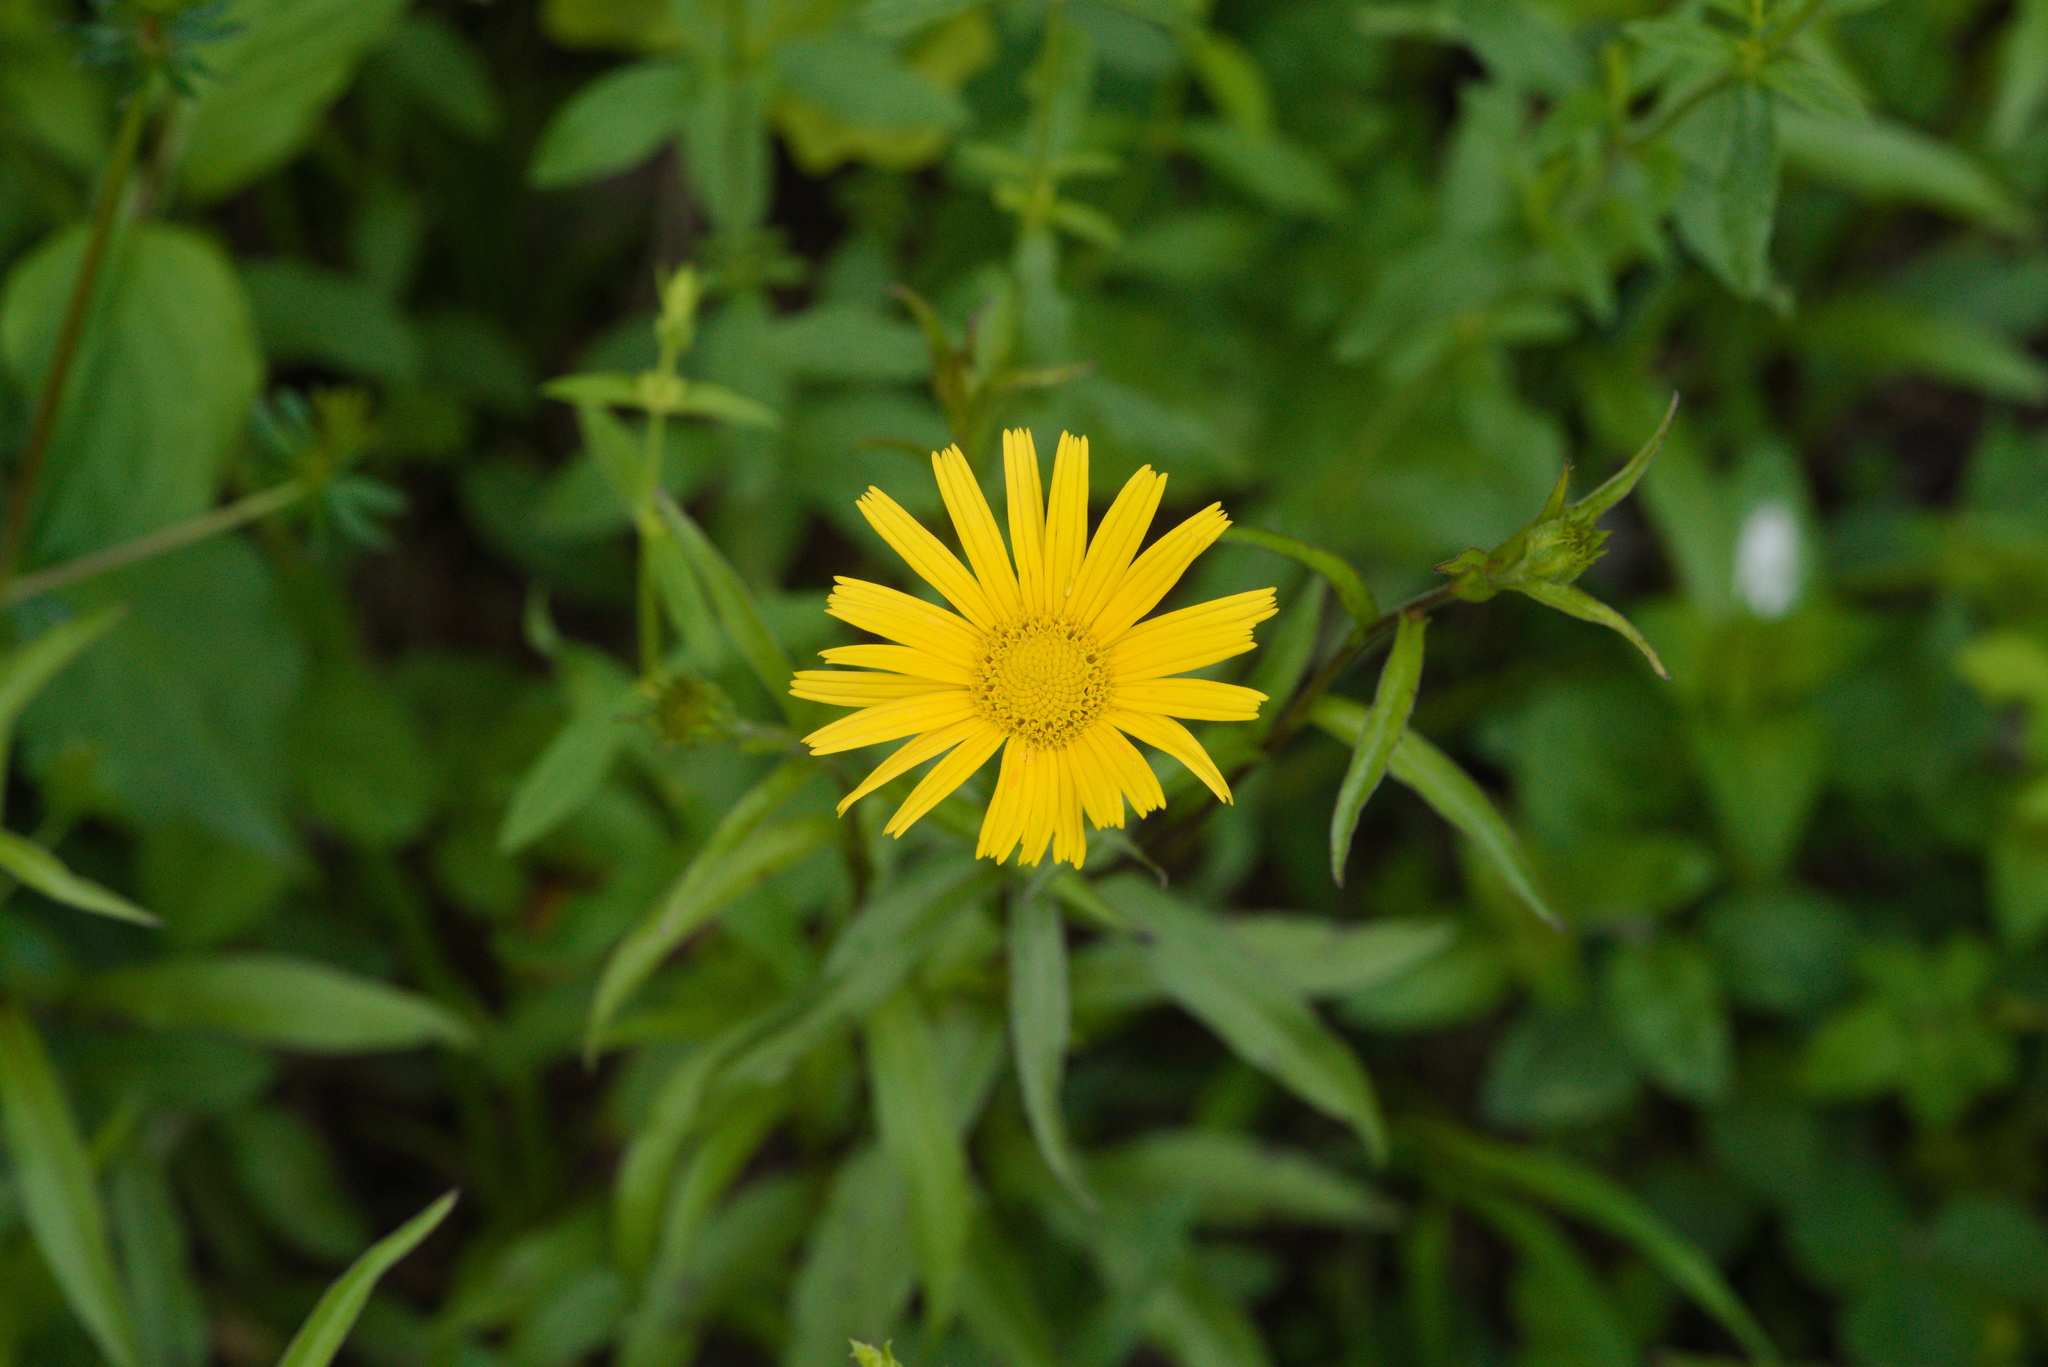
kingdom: Plantae
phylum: Tracheophyta
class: Magnoliopsida
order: Asterales
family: Asteraceae
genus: Buphthalmum
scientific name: Buphthalmum salicifolium
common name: Willow-leaved yellow-oxeye
